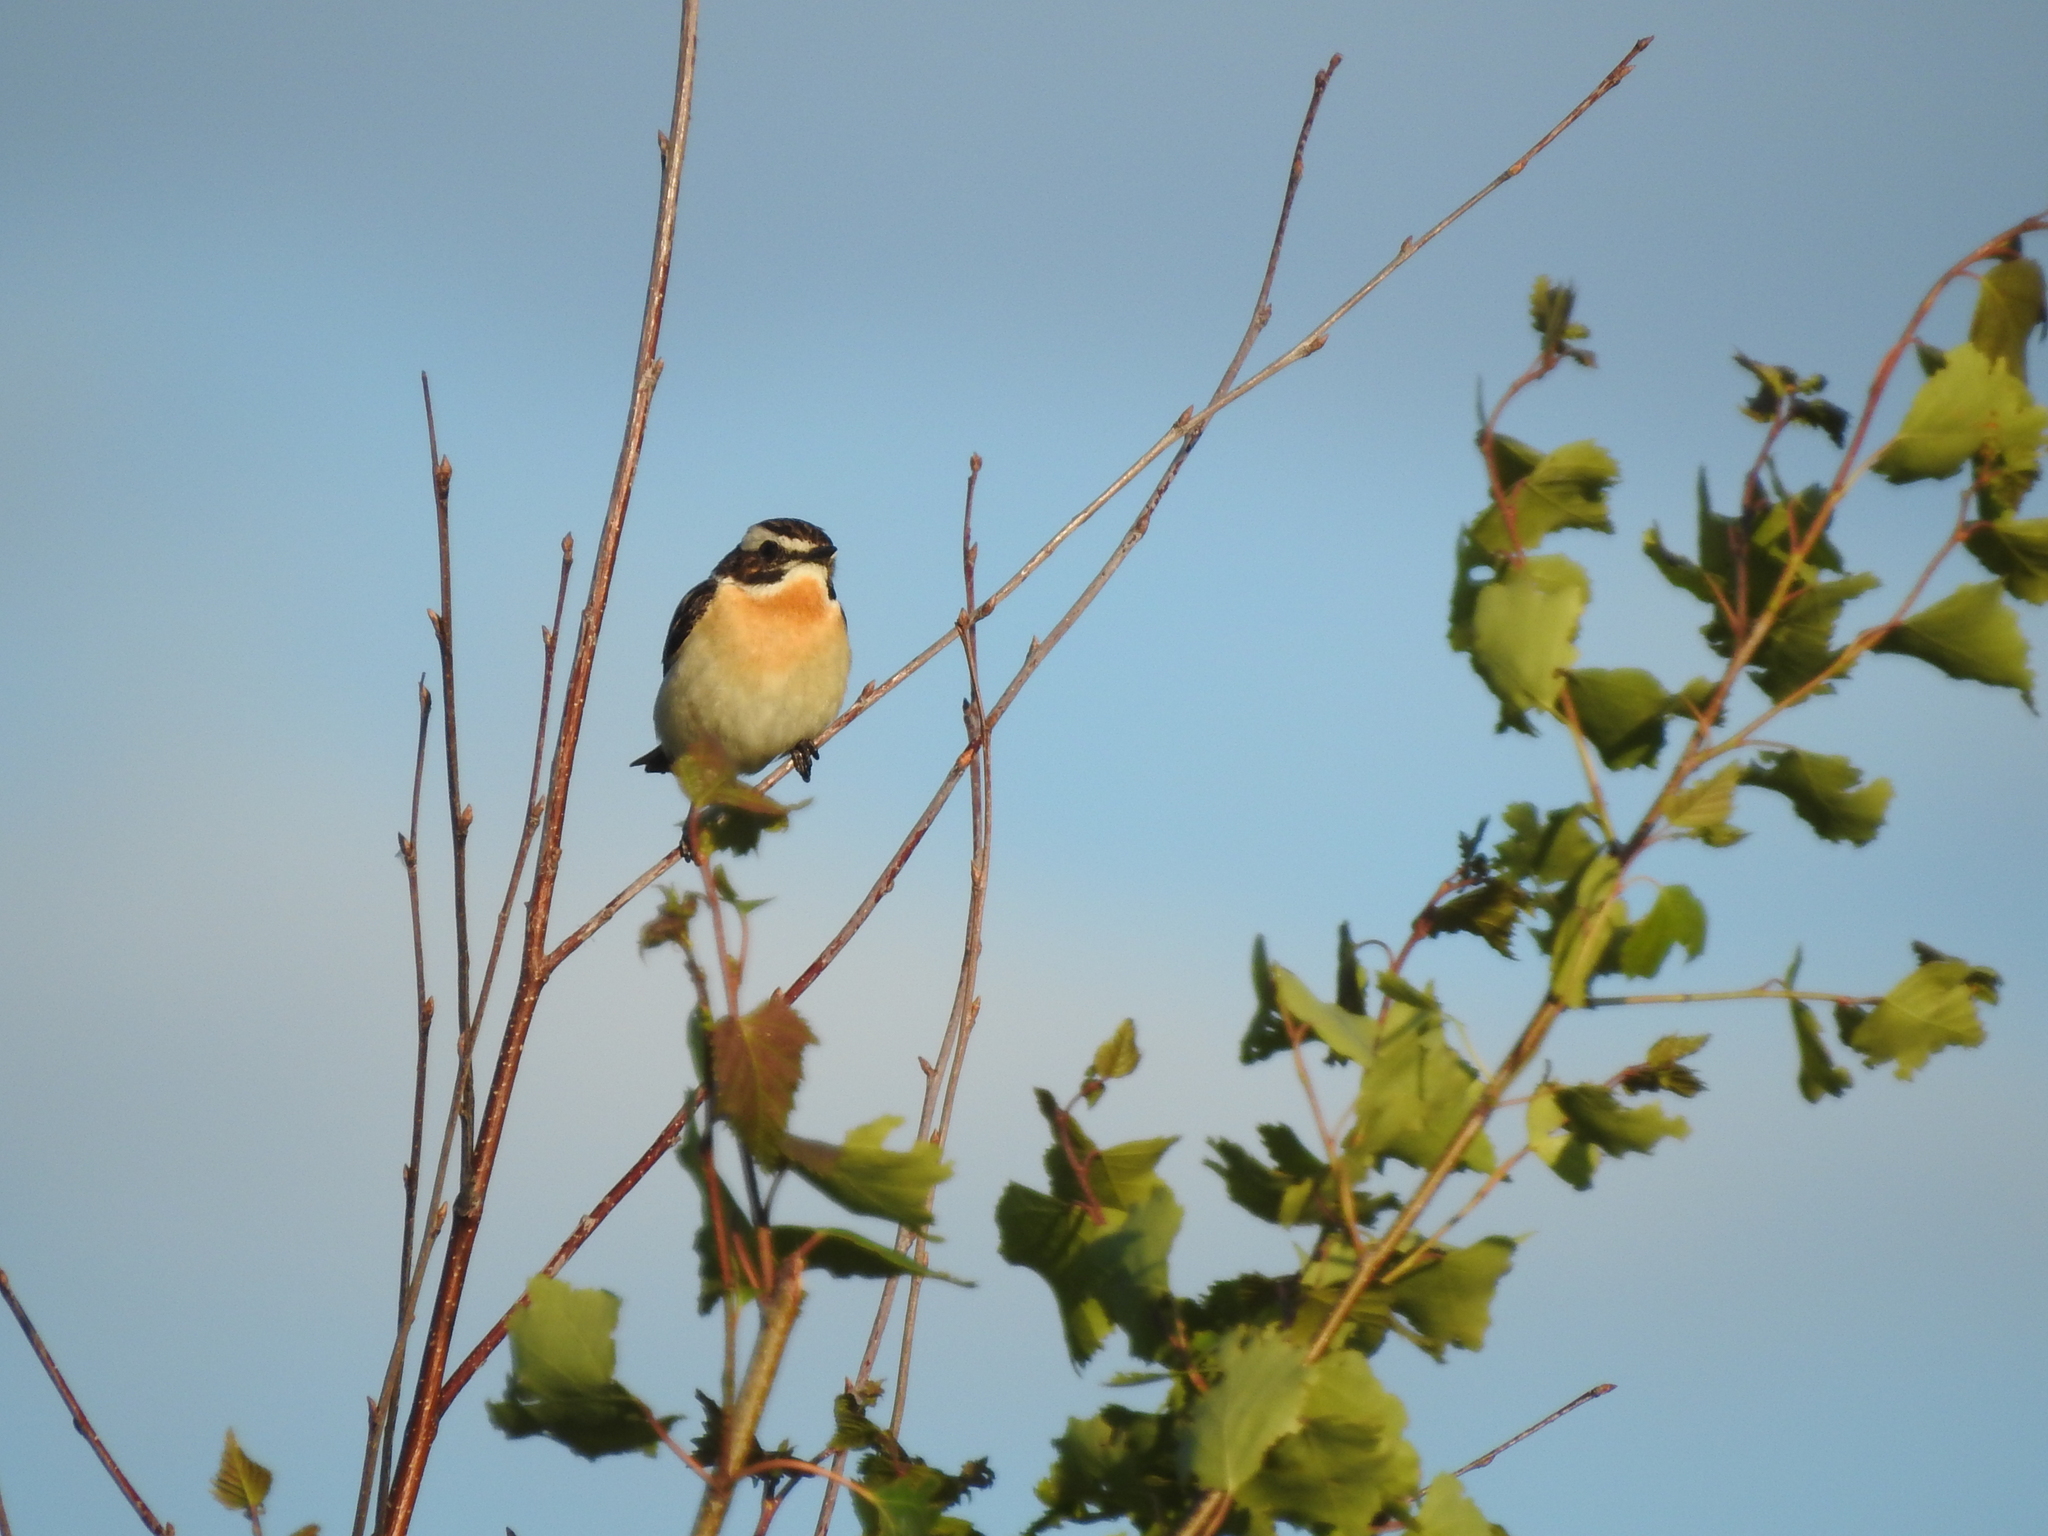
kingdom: Animalia
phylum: Chordata
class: Aves
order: Passeriformes
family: Muscicapidae
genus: Saxicola
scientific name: Saxicola rubetra
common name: Whinchat
